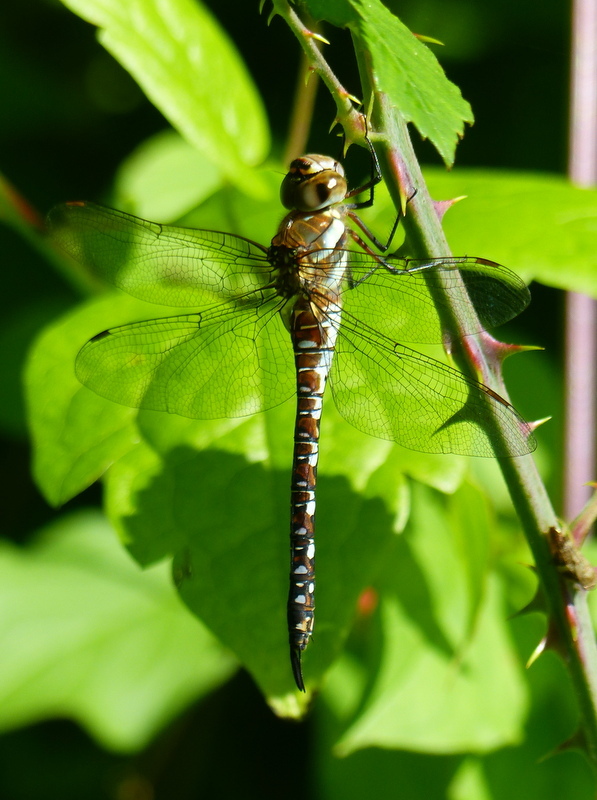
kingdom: Animalia
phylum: Arthropoda
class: Insecta
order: Odonata
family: Aeshnidae
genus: Aeshna
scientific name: Aeshna mixta
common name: Migrant hawker
